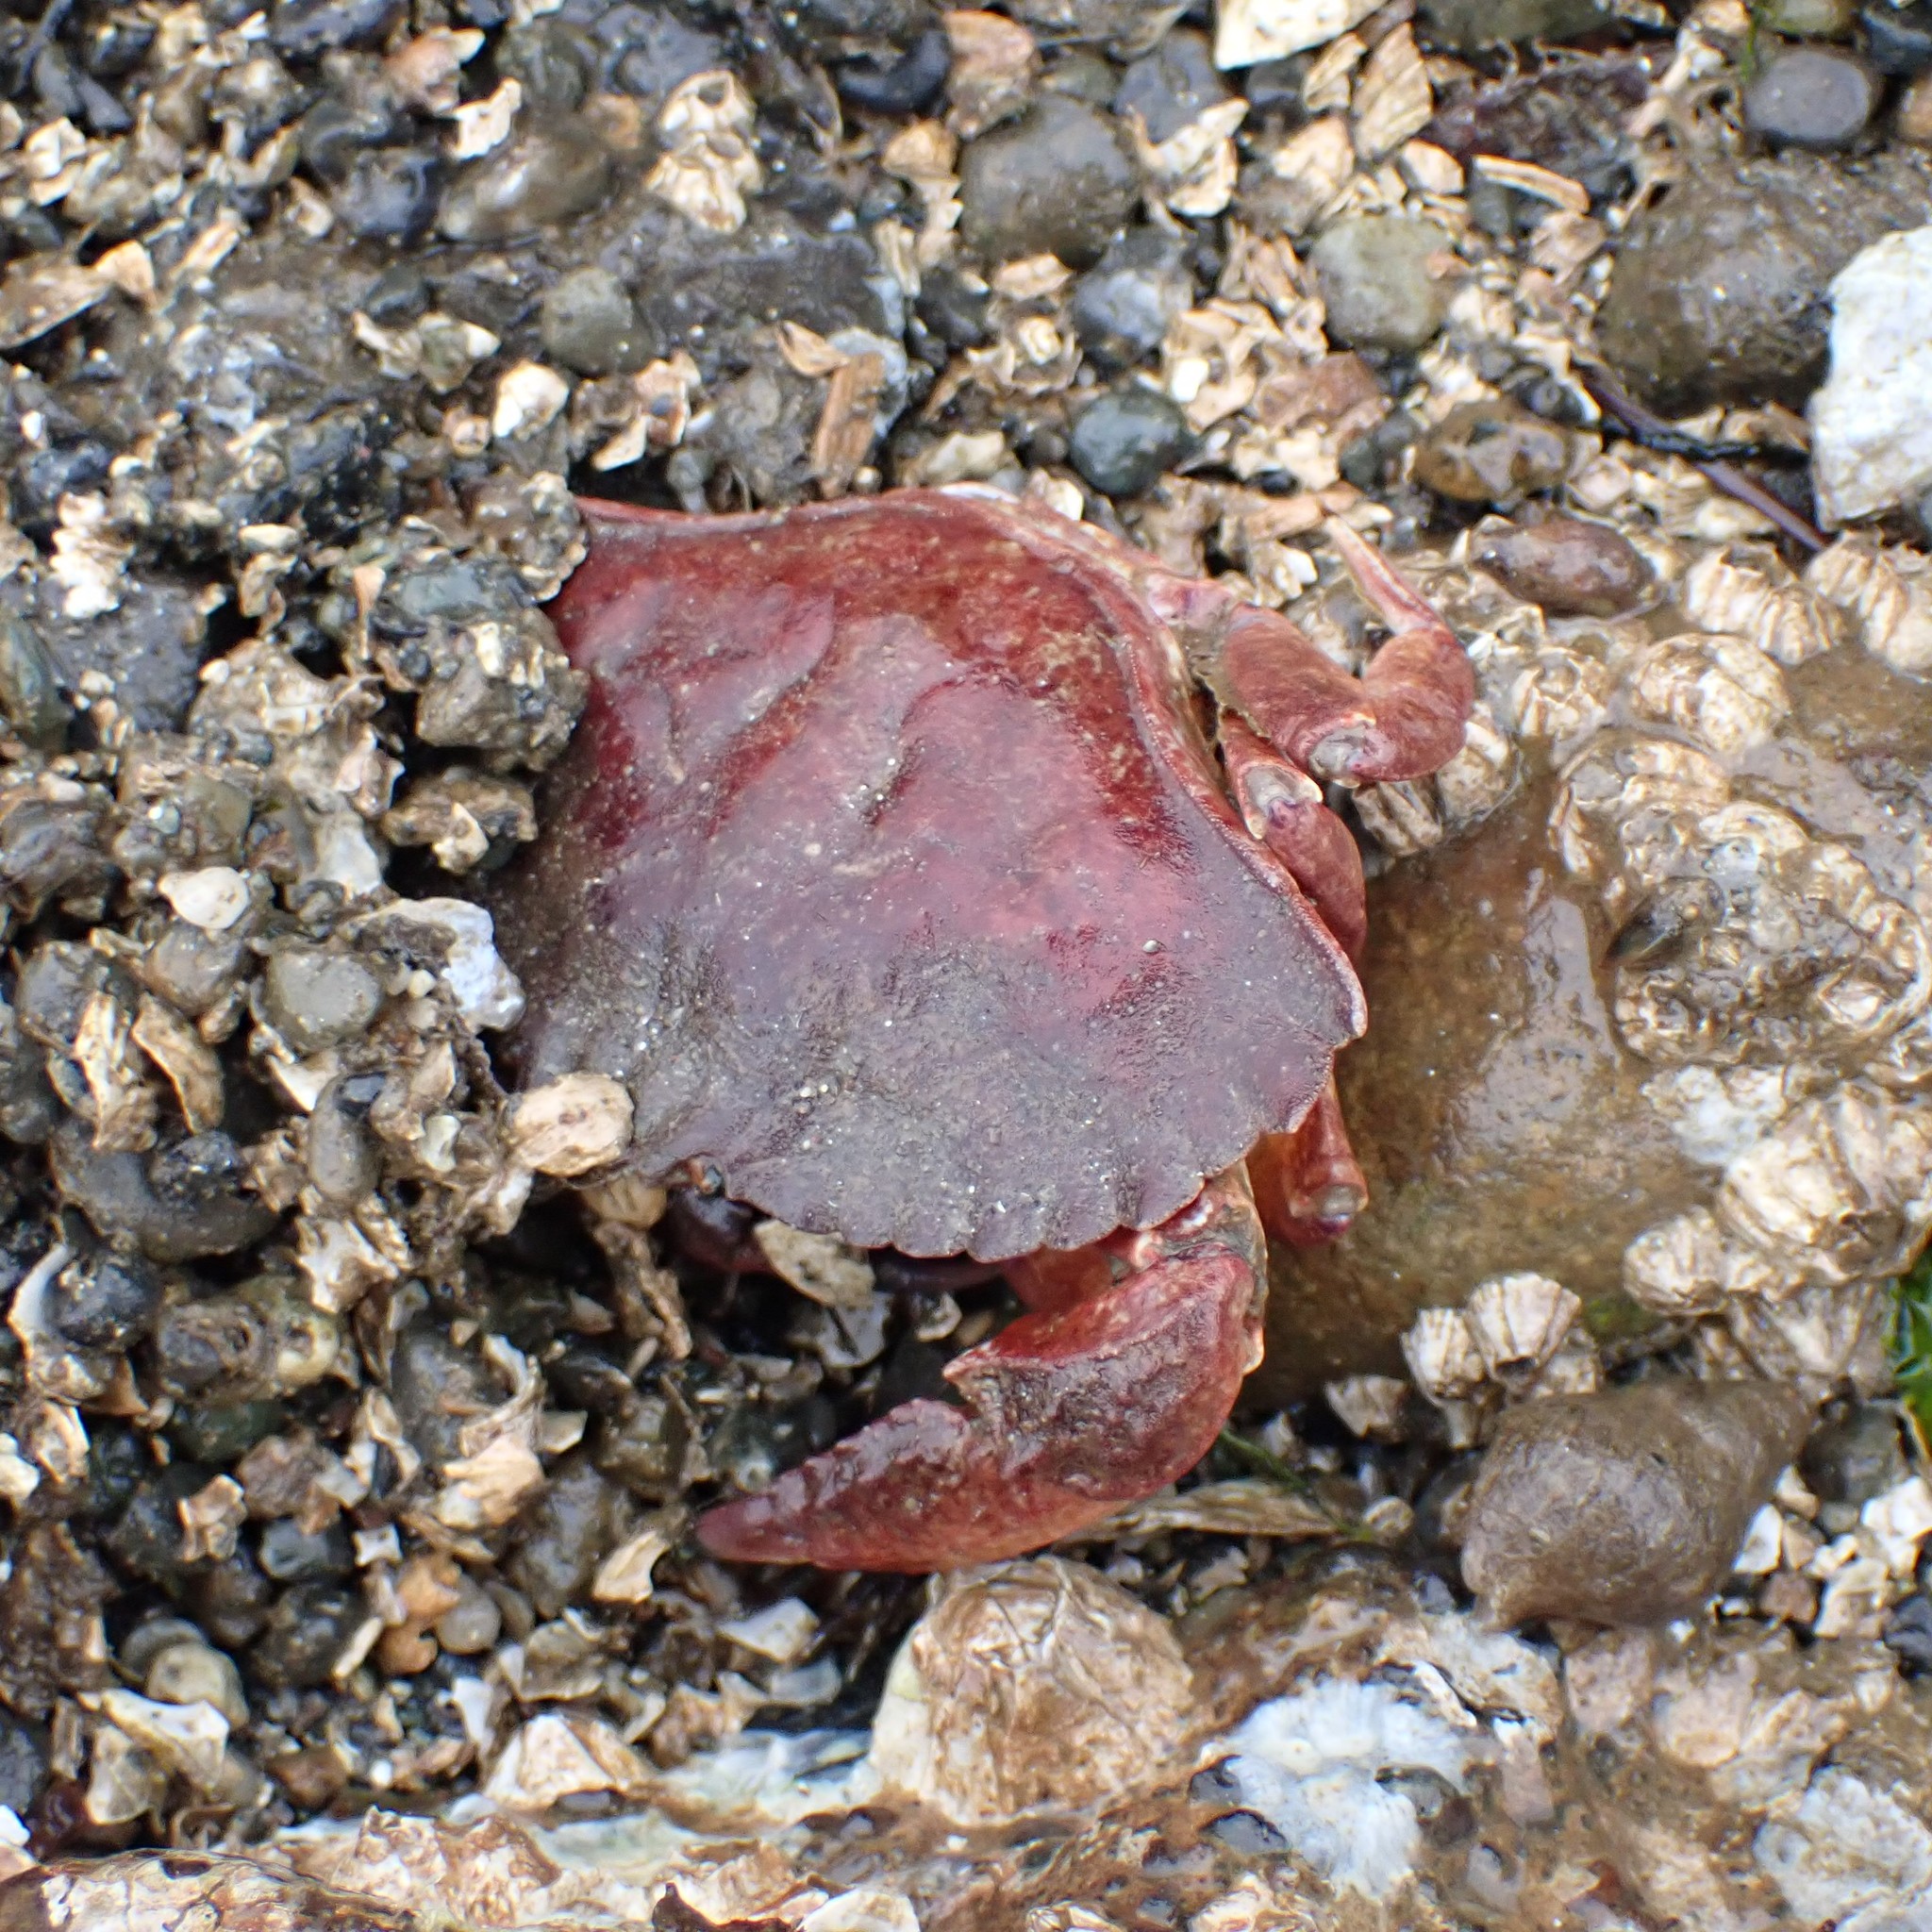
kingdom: Animalia
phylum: Arthropoda
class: Malacostraca
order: Decapoda
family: Cancridae
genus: Cancer
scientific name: Cancer productus
